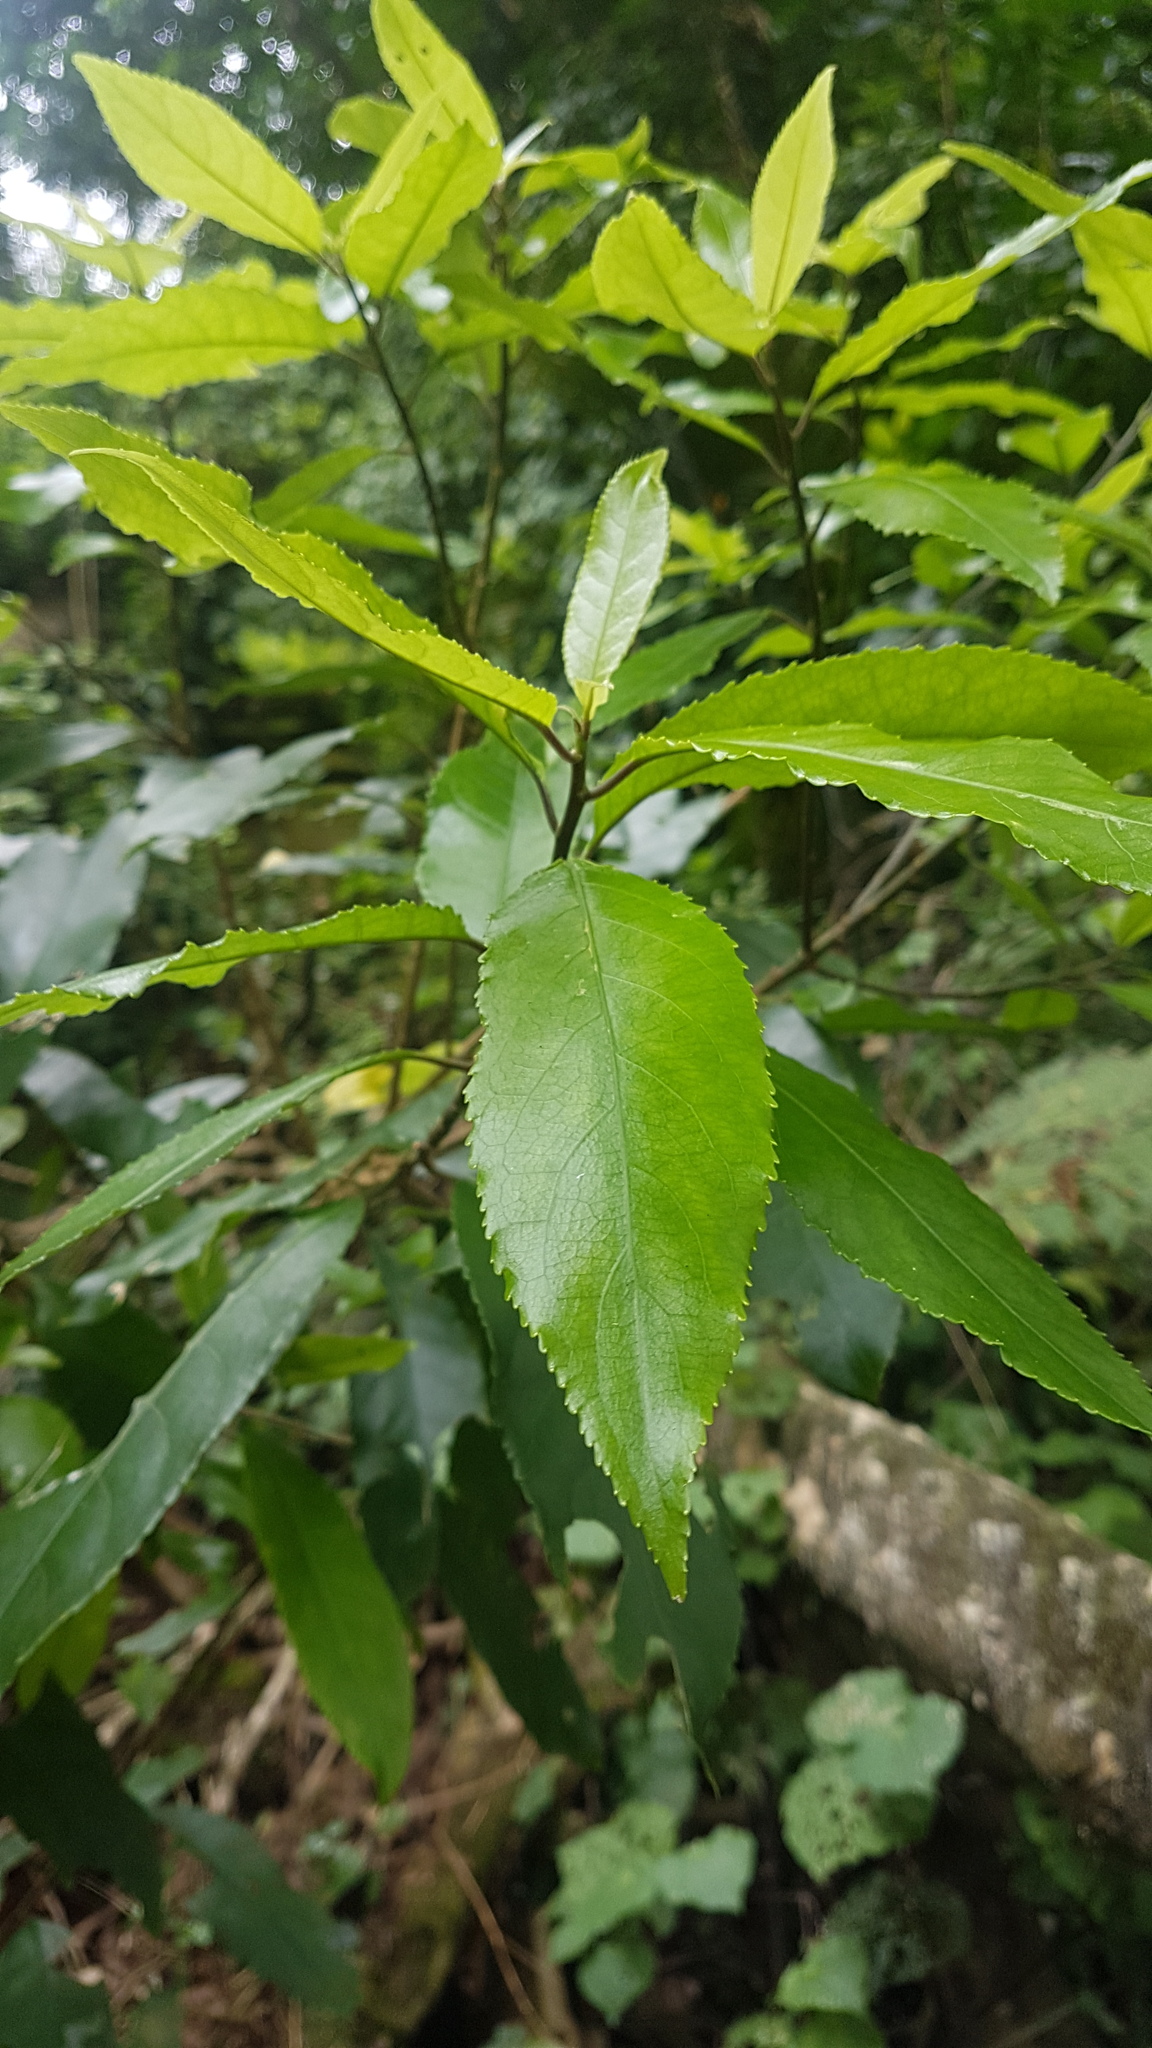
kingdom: Plantae
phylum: Tracheophyta
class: Magnoliopsida
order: Malpighiales
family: Violaceae
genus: Melicytus
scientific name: Melicytus ramiflorus
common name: Mahoe
